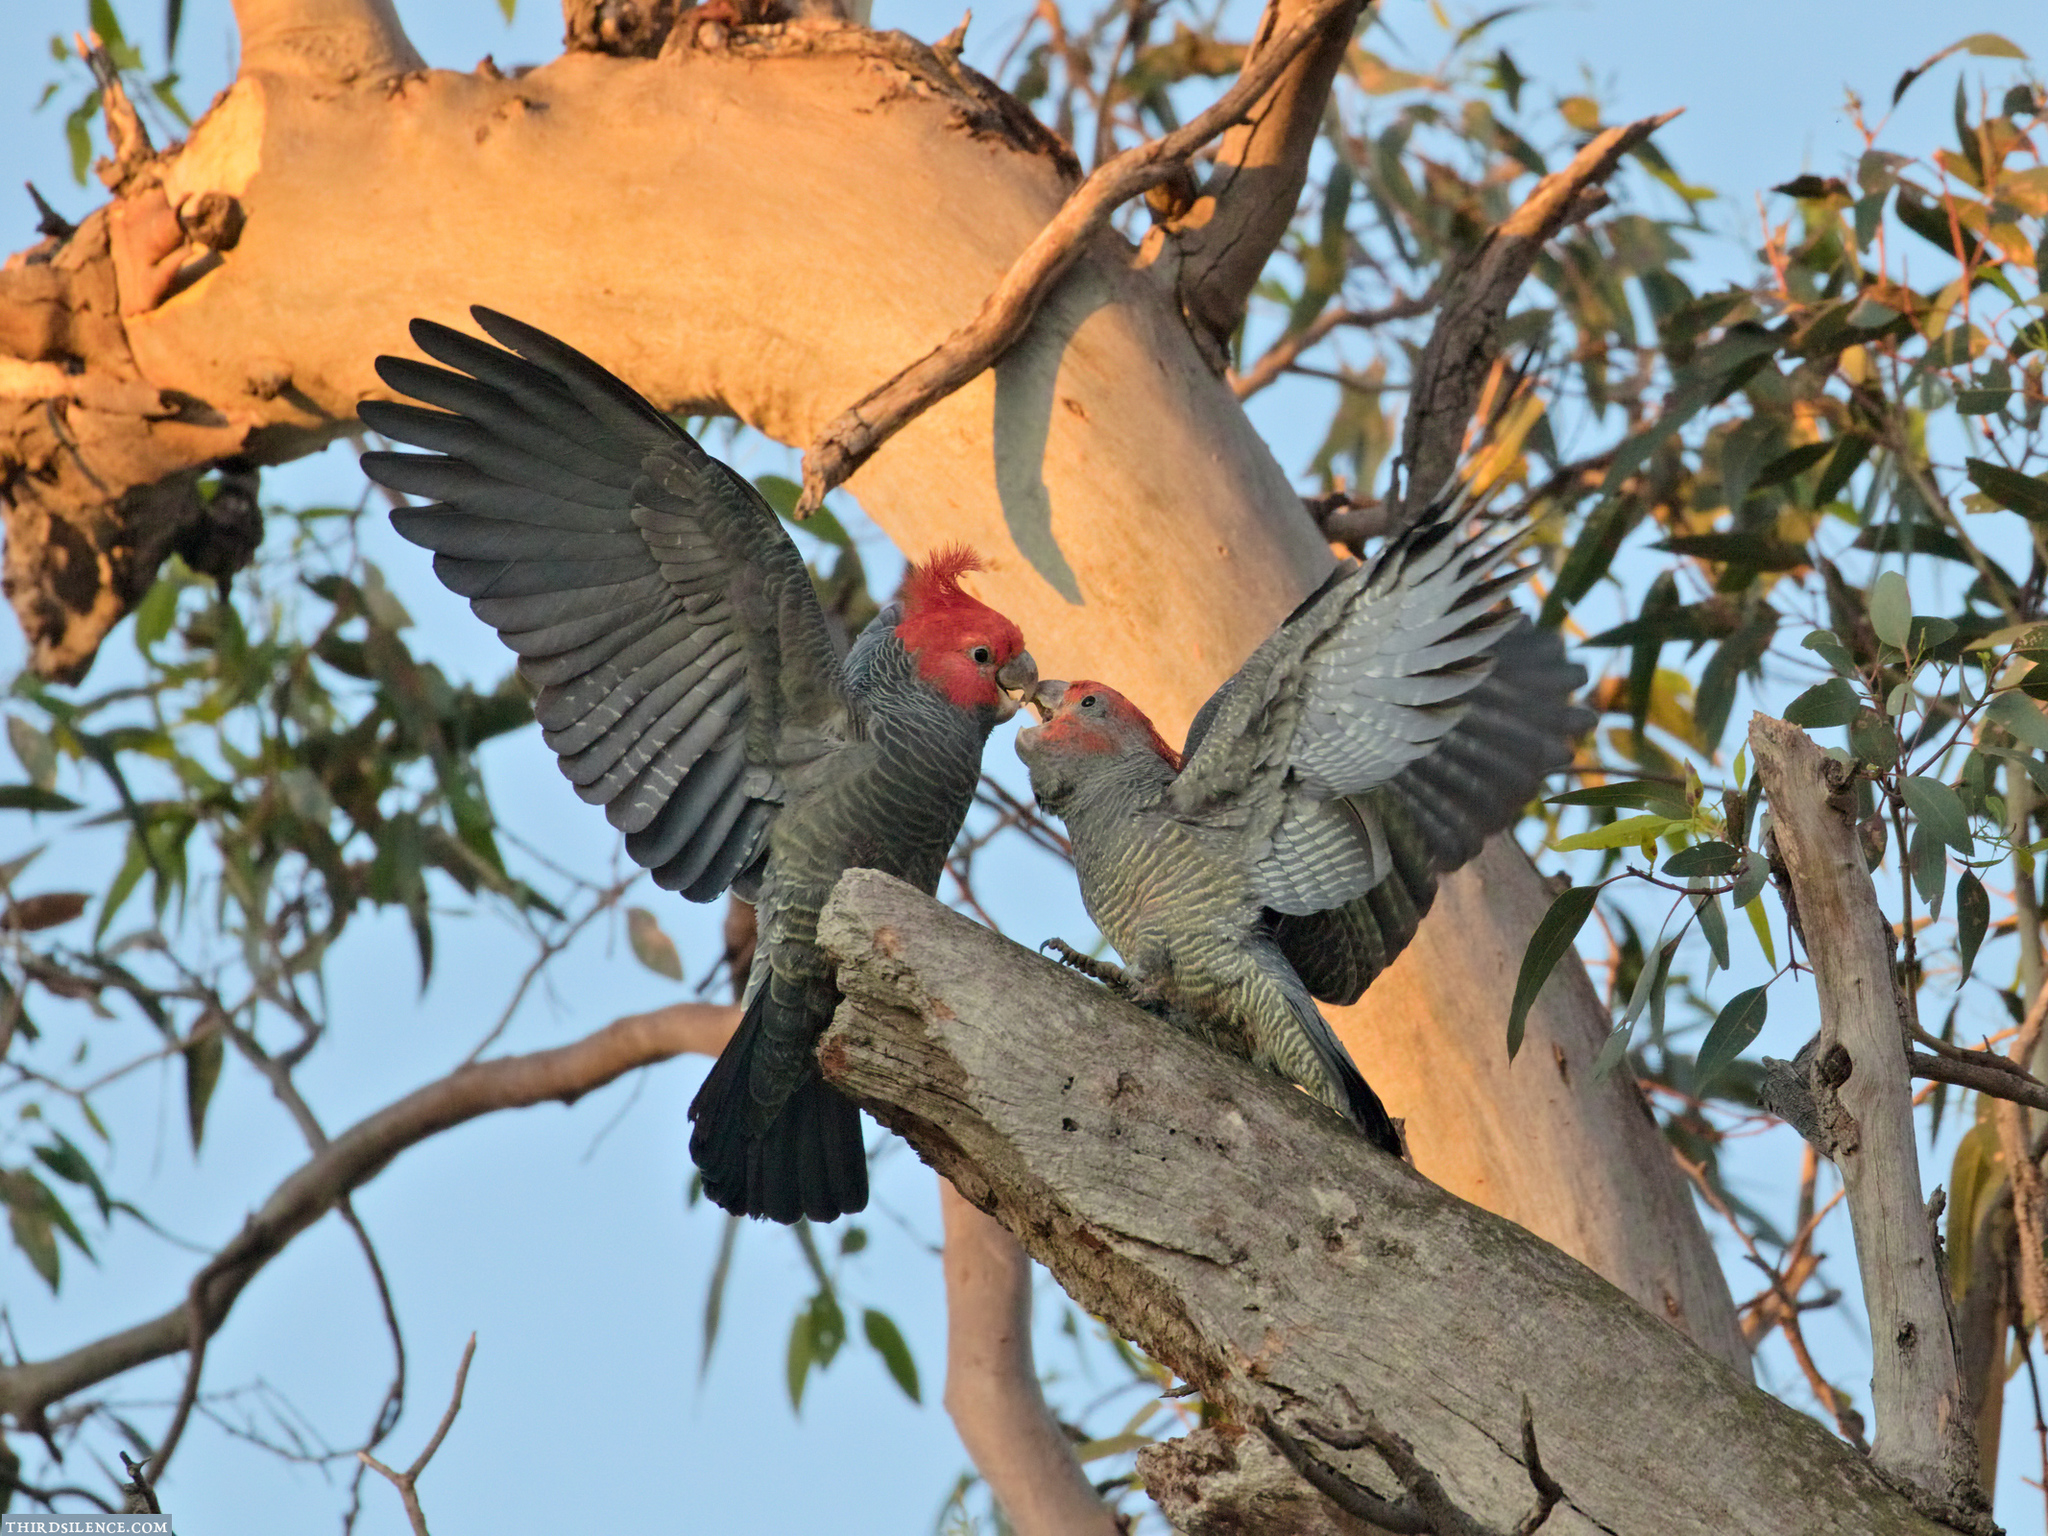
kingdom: Animalia
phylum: Chordata
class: Aves
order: Psittaciformes
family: Psittacidae
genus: Callocephalon
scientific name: Callocephalon fimbriatum
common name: Gang-gang cockatoo
